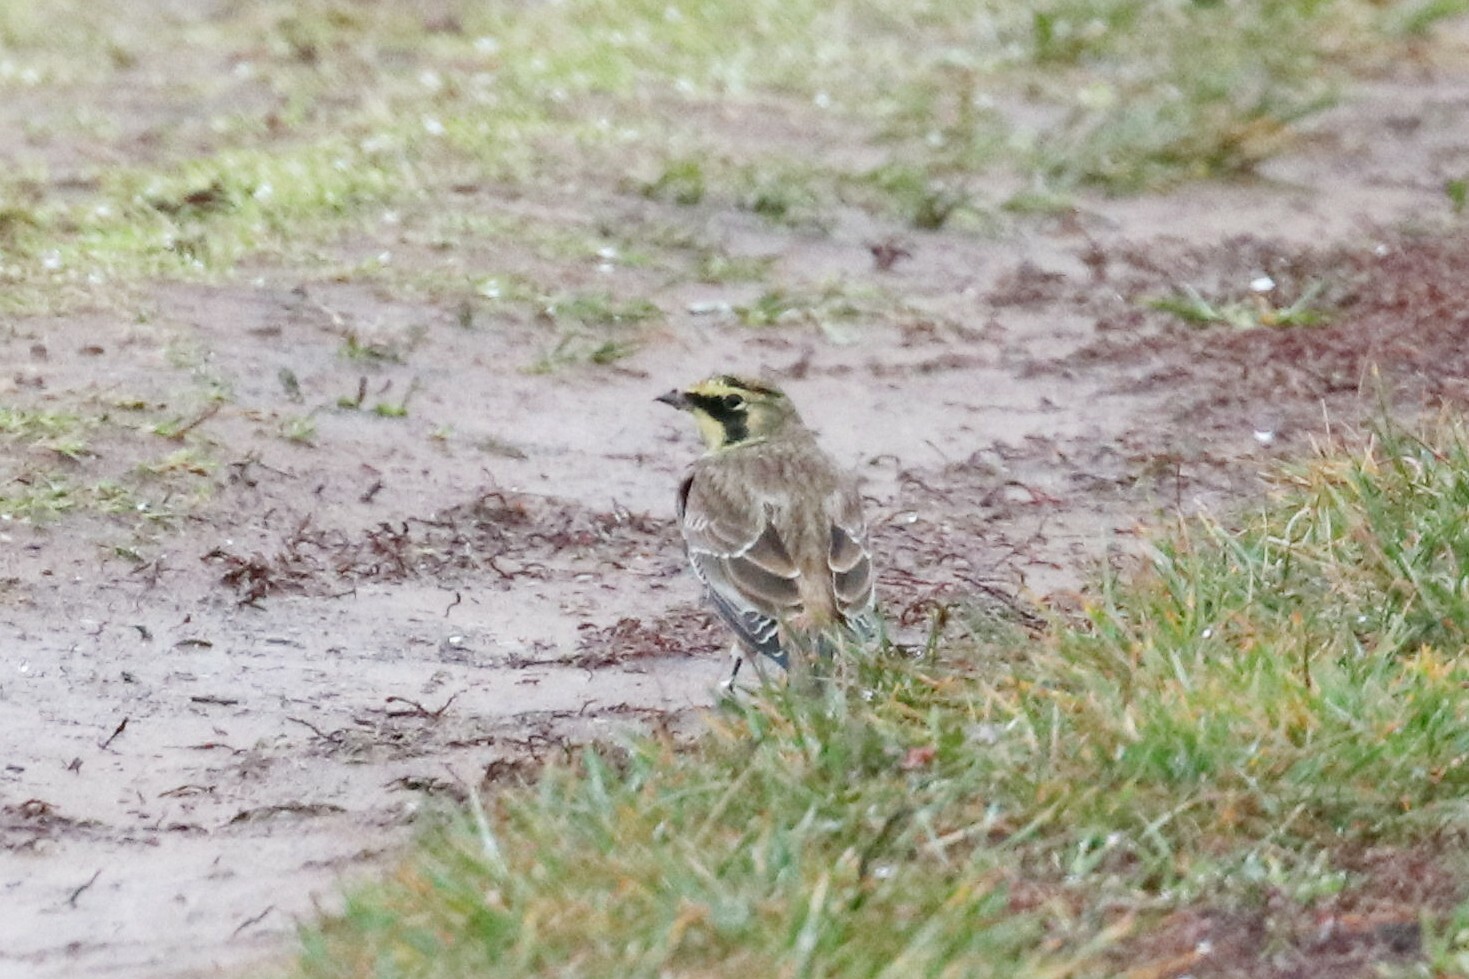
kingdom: Animalia
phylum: Chordata
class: Aves
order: Passeriformes
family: Alaudidae
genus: Eremophila
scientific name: Eremophila alpestris
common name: Horned lark
